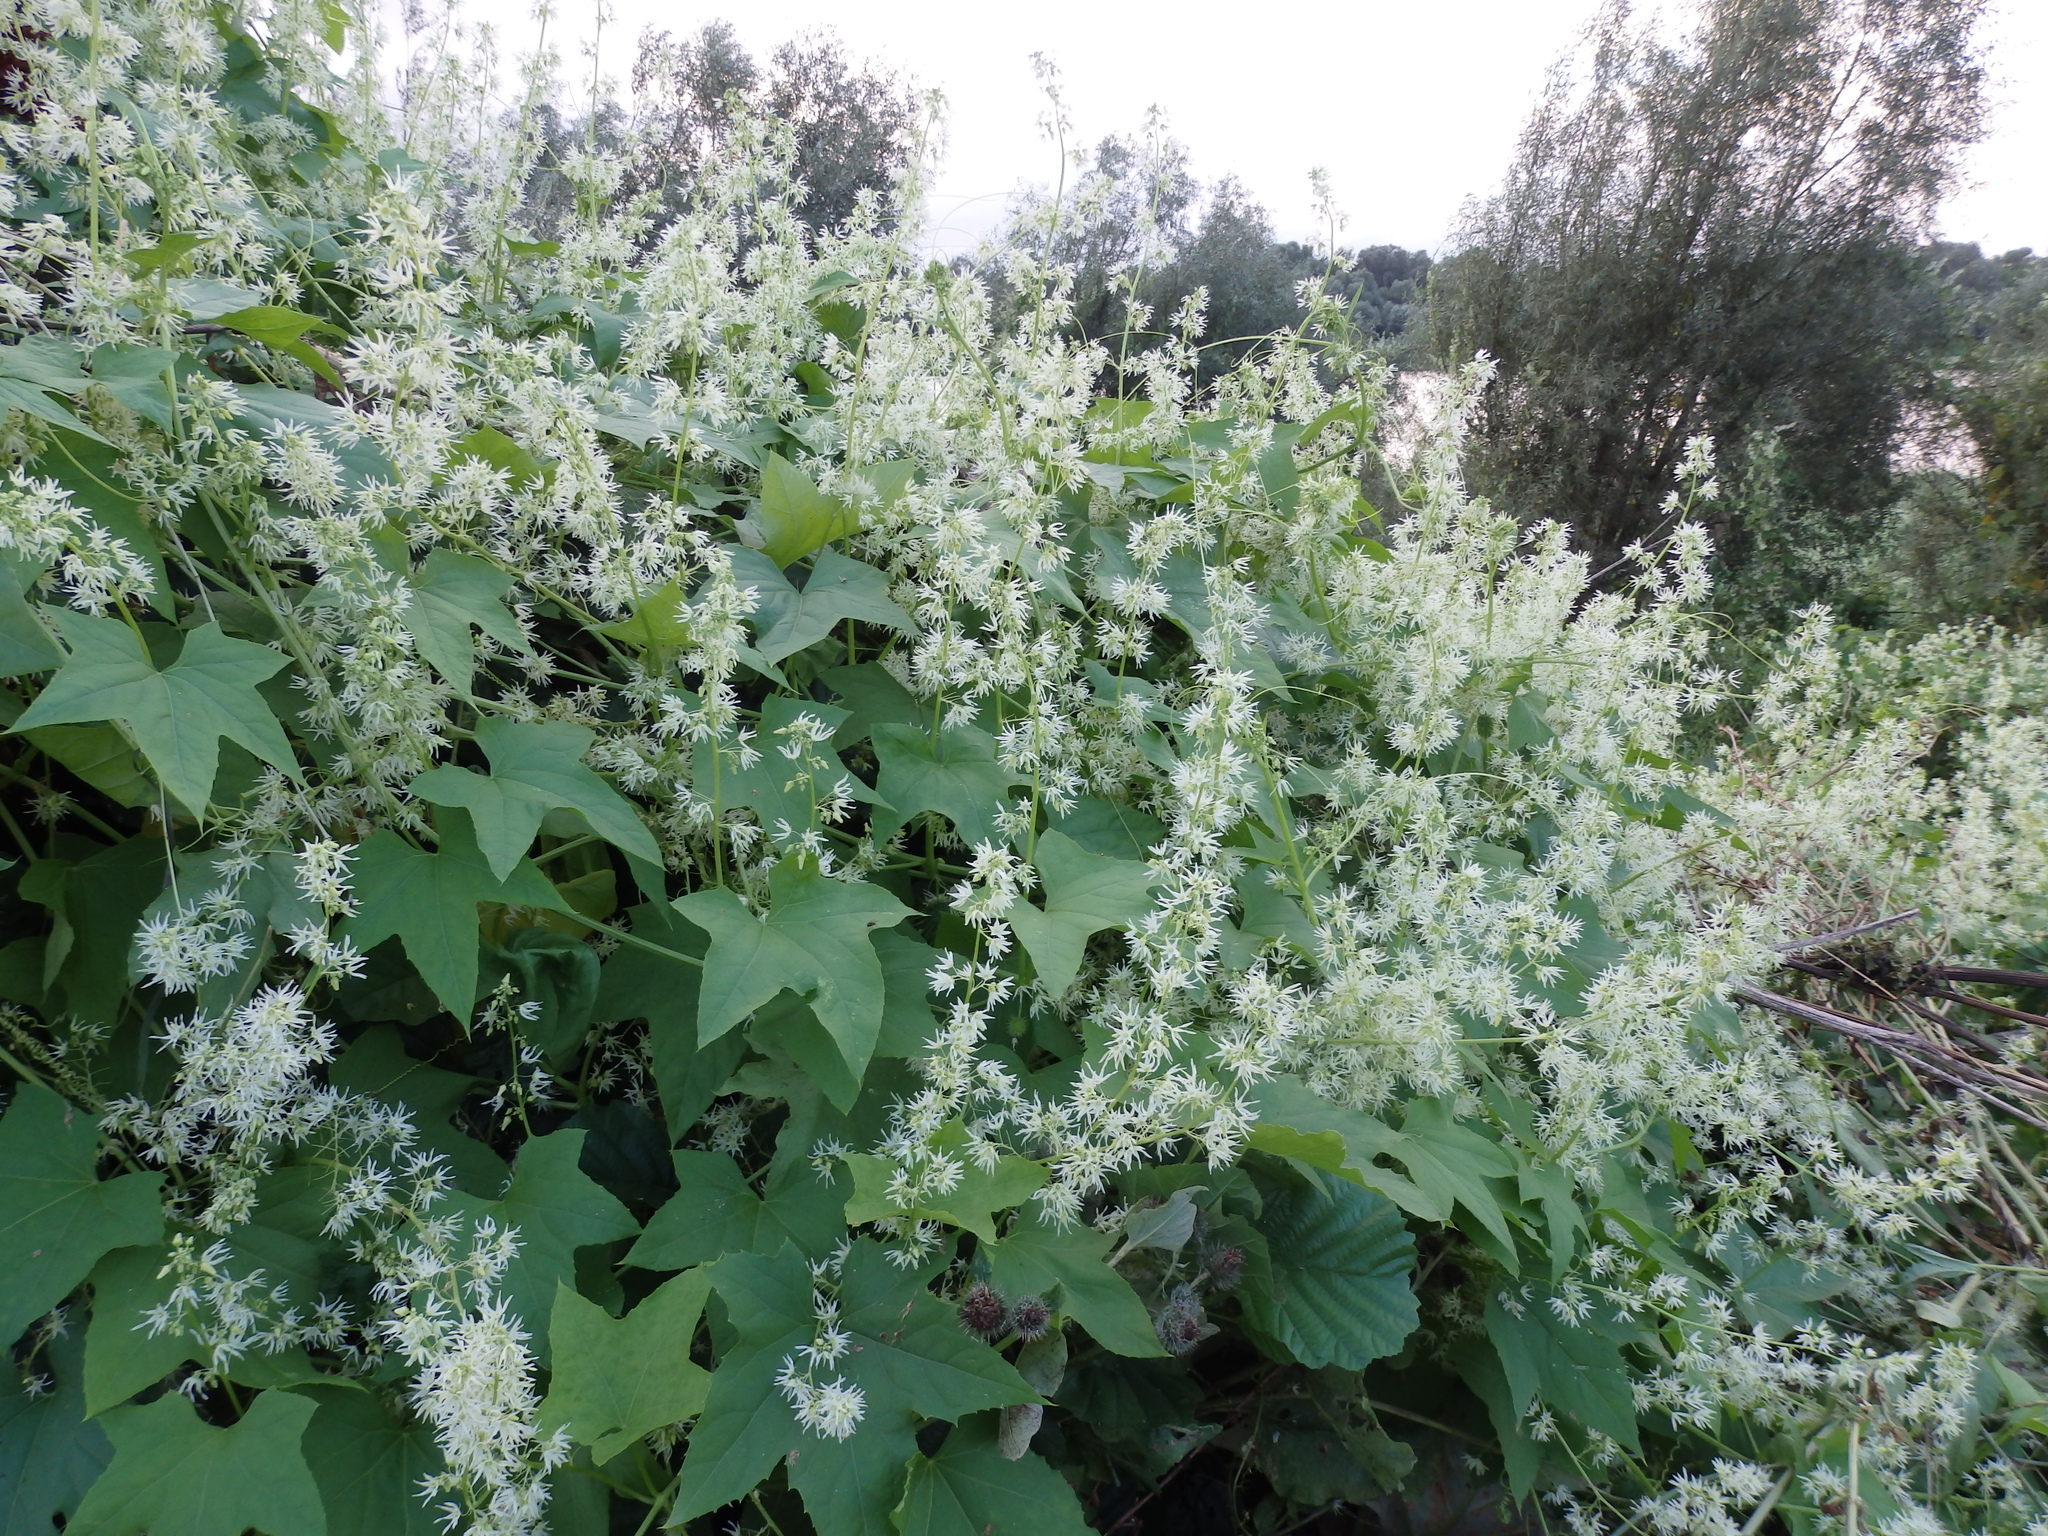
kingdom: Plantae
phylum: Tracheophyta
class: Magnoliopsida
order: Cucurbitales
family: Cucurbitaceae
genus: Echinocystis
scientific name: Echinocystis lobata
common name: Wild cucumber
